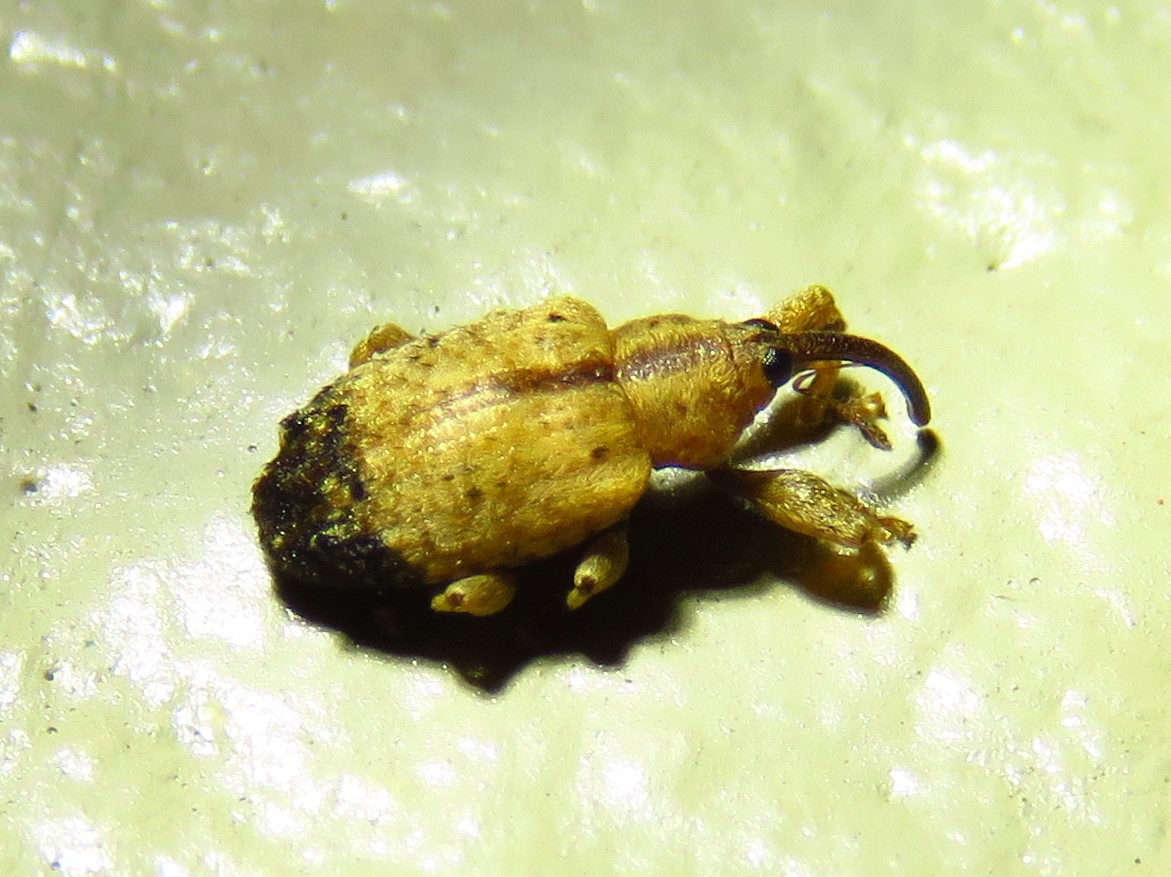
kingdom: Animalia
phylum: Arthropoda
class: Insecta
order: Coleoptera
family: Curculionidae
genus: Ochyromera
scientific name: Ochyromera ligustri
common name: Weevil
